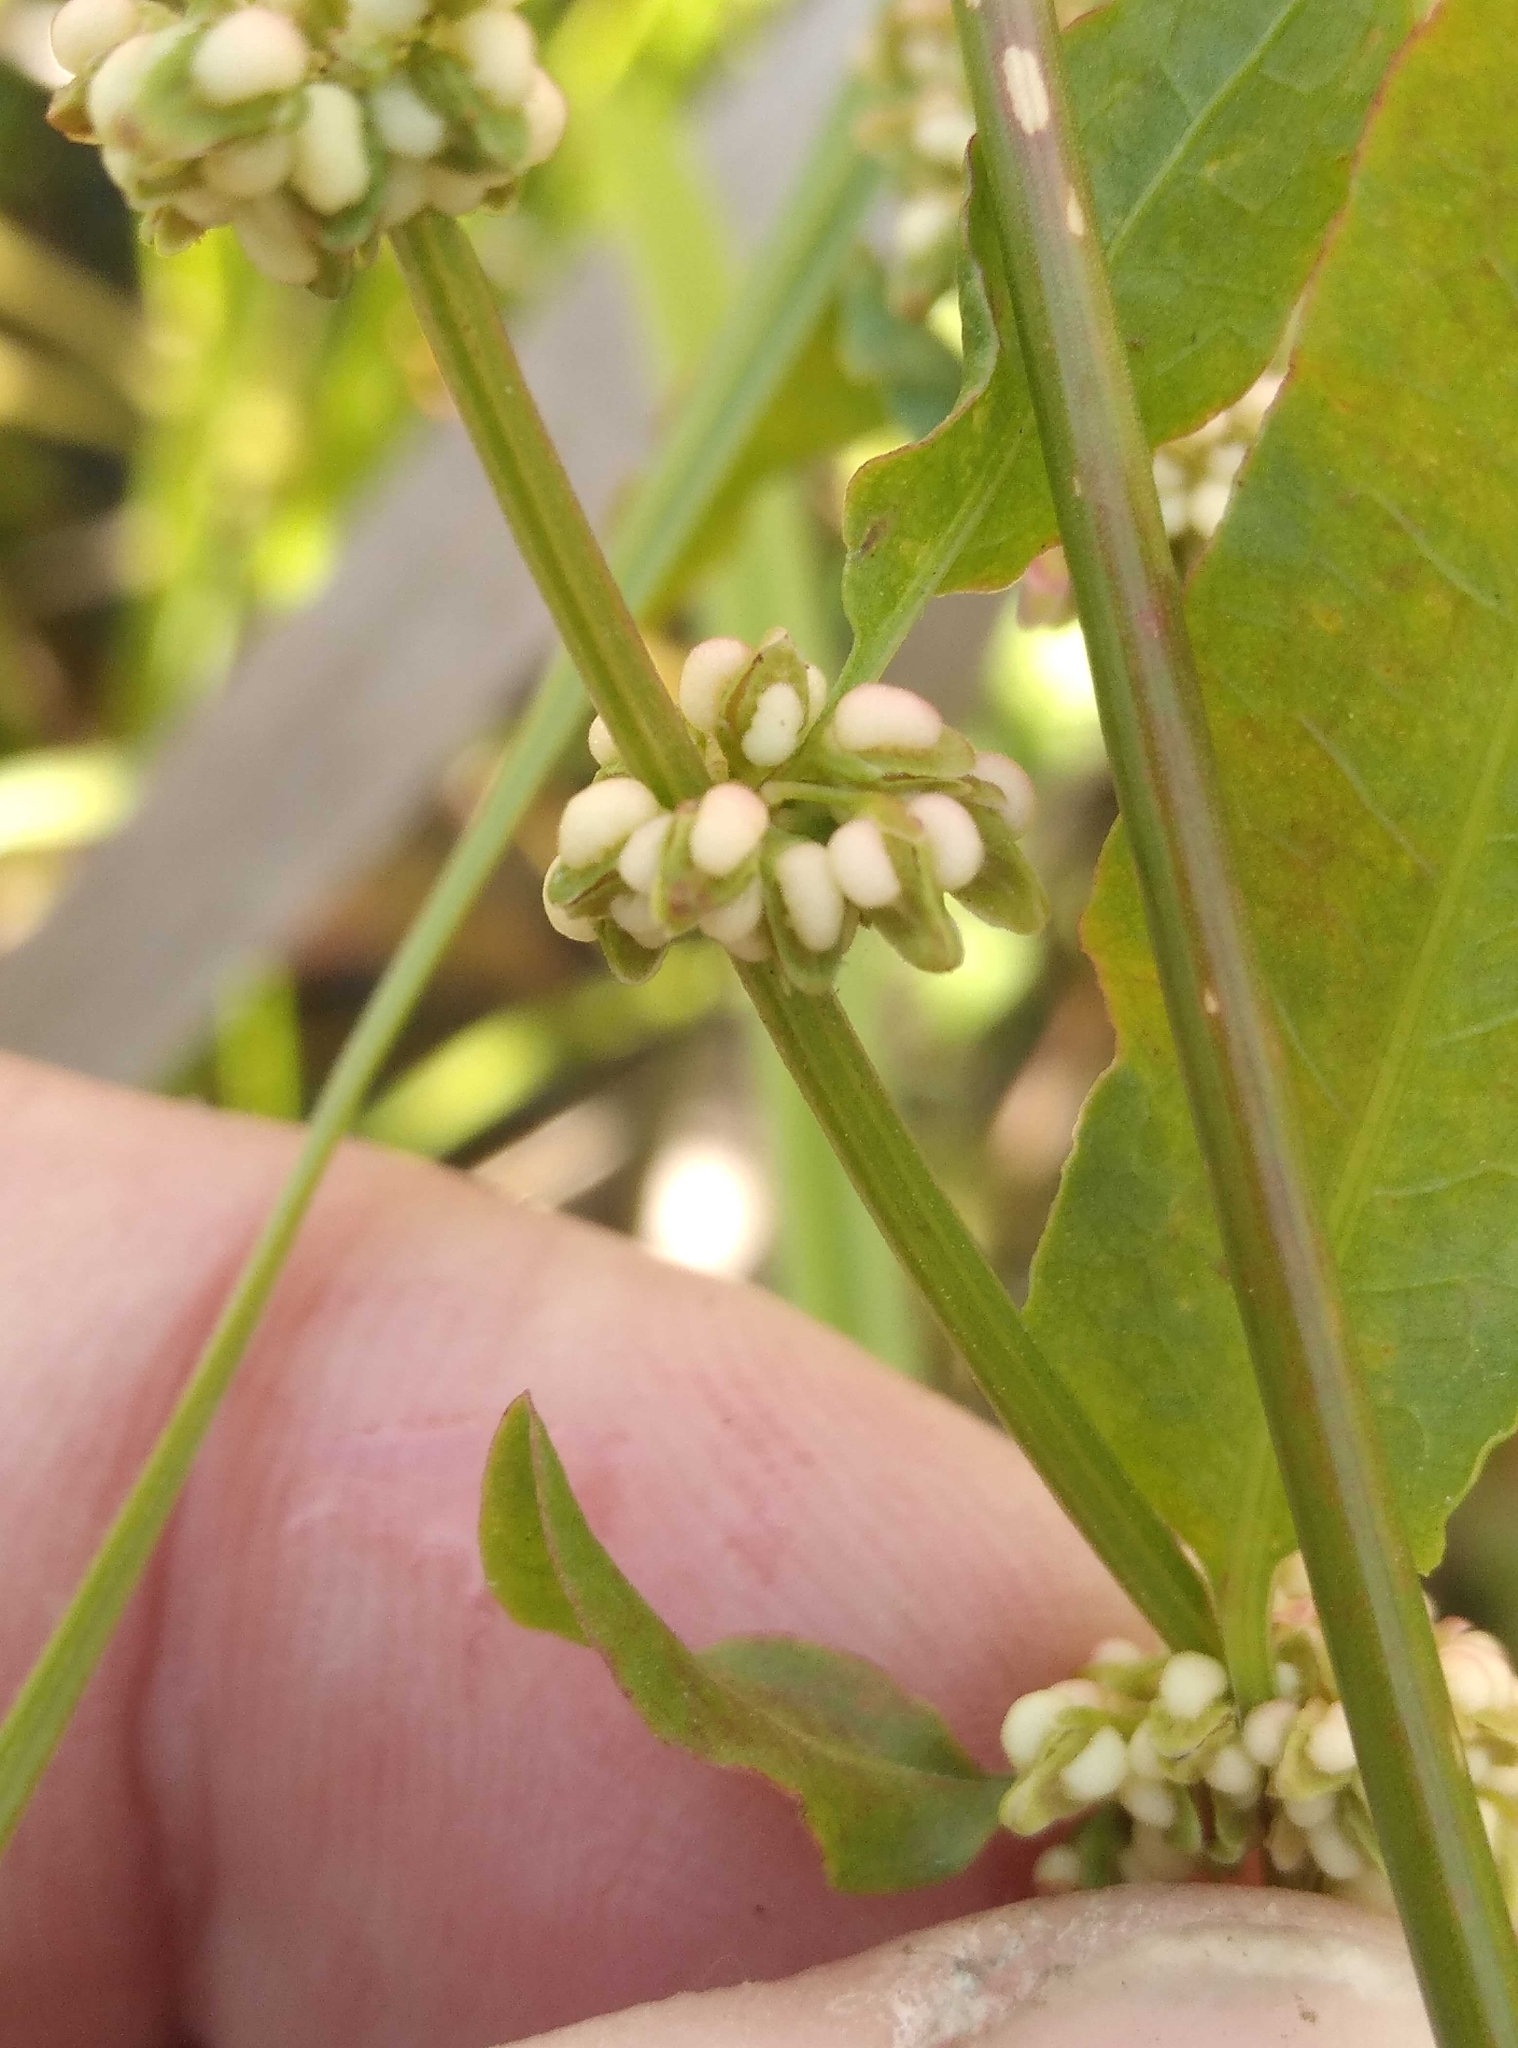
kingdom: Plantae
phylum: Tracheophyta
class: Magnoliopsida
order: Caryophyllales
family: Polygonaceae
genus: Rumex
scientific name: Rumex conglomeratus
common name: Clustered dock
